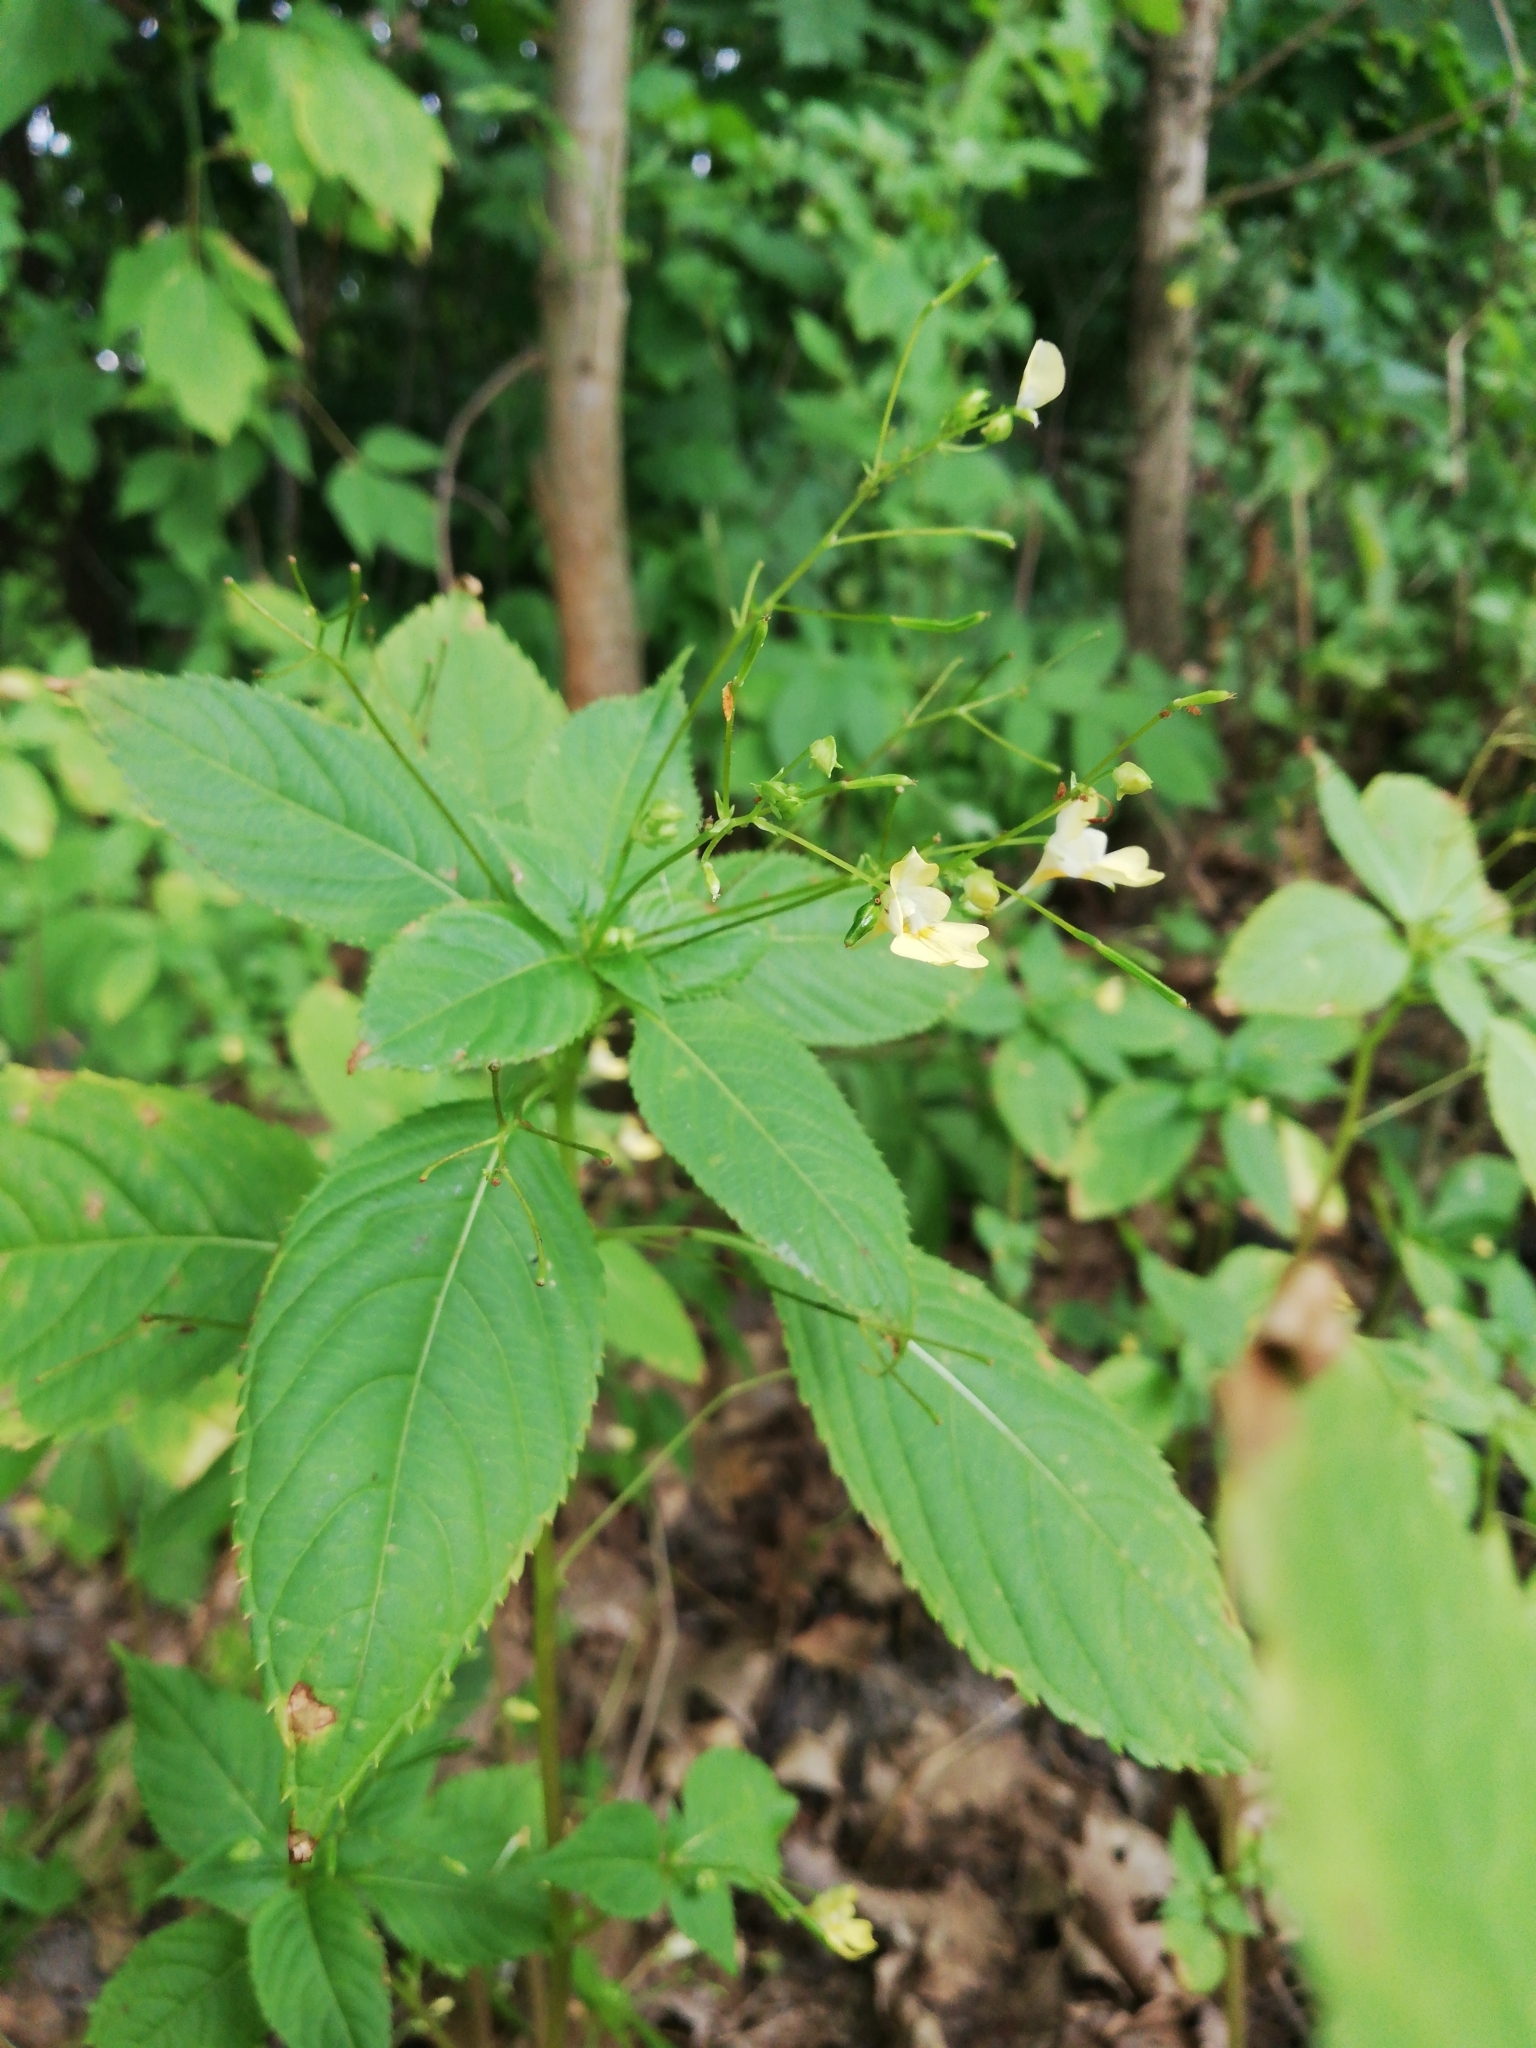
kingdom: Plantae
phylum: Tracheophyta
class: Magnoliopsida
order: Ericales
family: Balsaminaceae
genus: Impatiens
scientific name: Impatiens parviflora
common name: Small balsam
